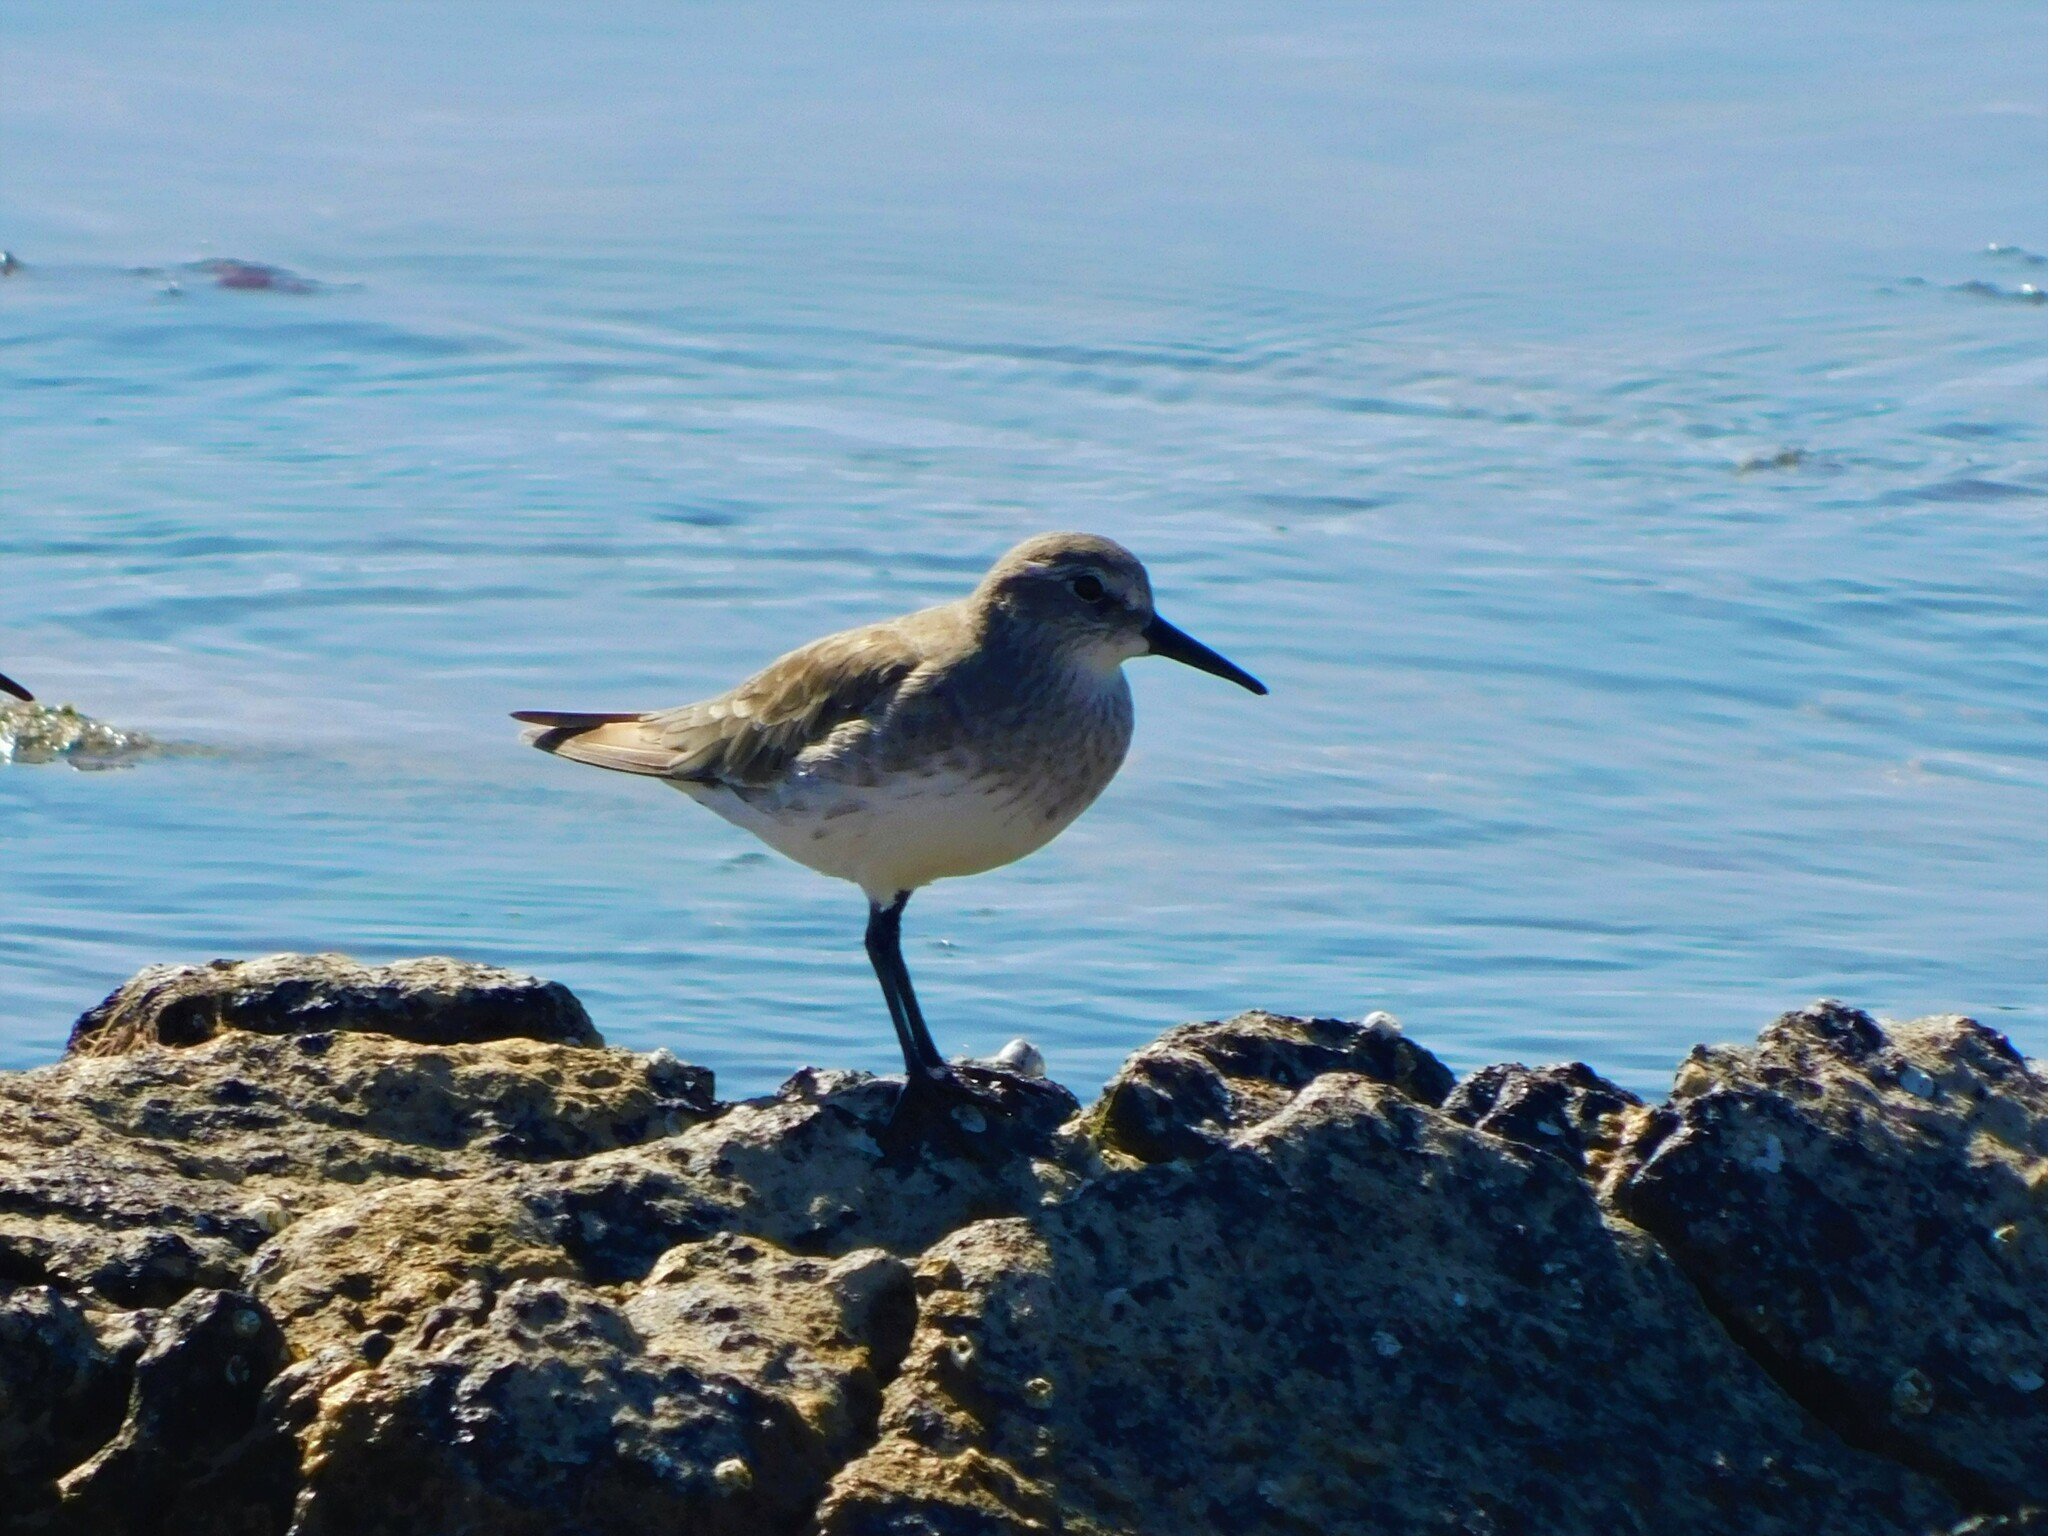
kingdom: Animalia
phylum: Chordata
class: Aves
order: Charadriiformes
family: Scolopacidae
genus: Calidris
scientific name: Calidris fuscicollis
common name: White-rumped sandpiper
